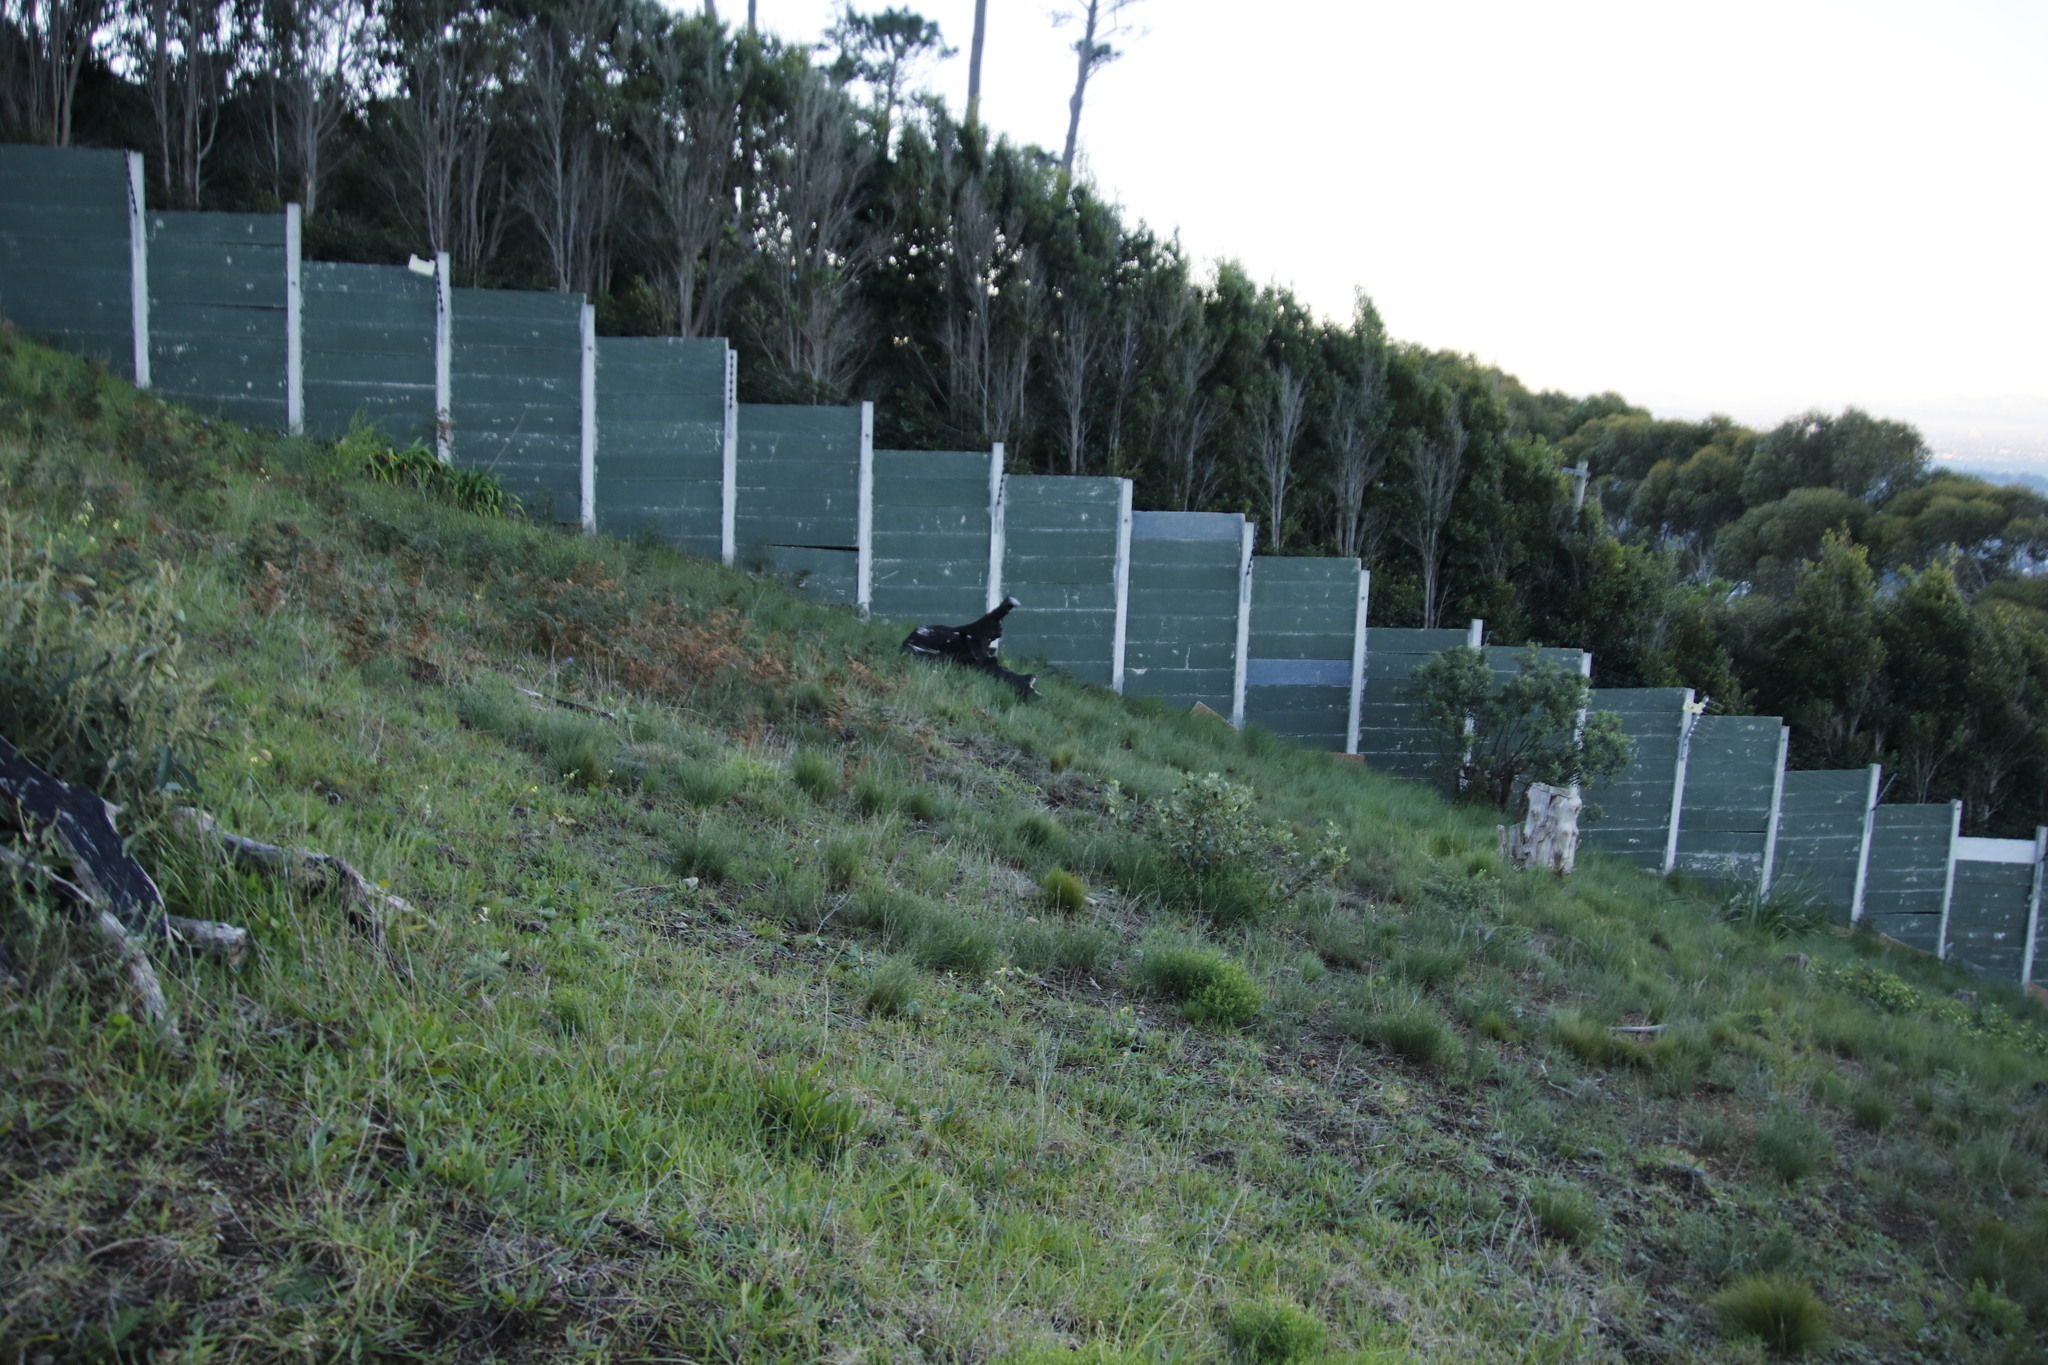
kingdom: Plantae
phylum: Tracheophyta
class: Magnoliopsida
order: Asterales
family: Asteraceae
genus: Senecio
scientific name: Senecio pterophorus
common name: Shoddy ragwort
